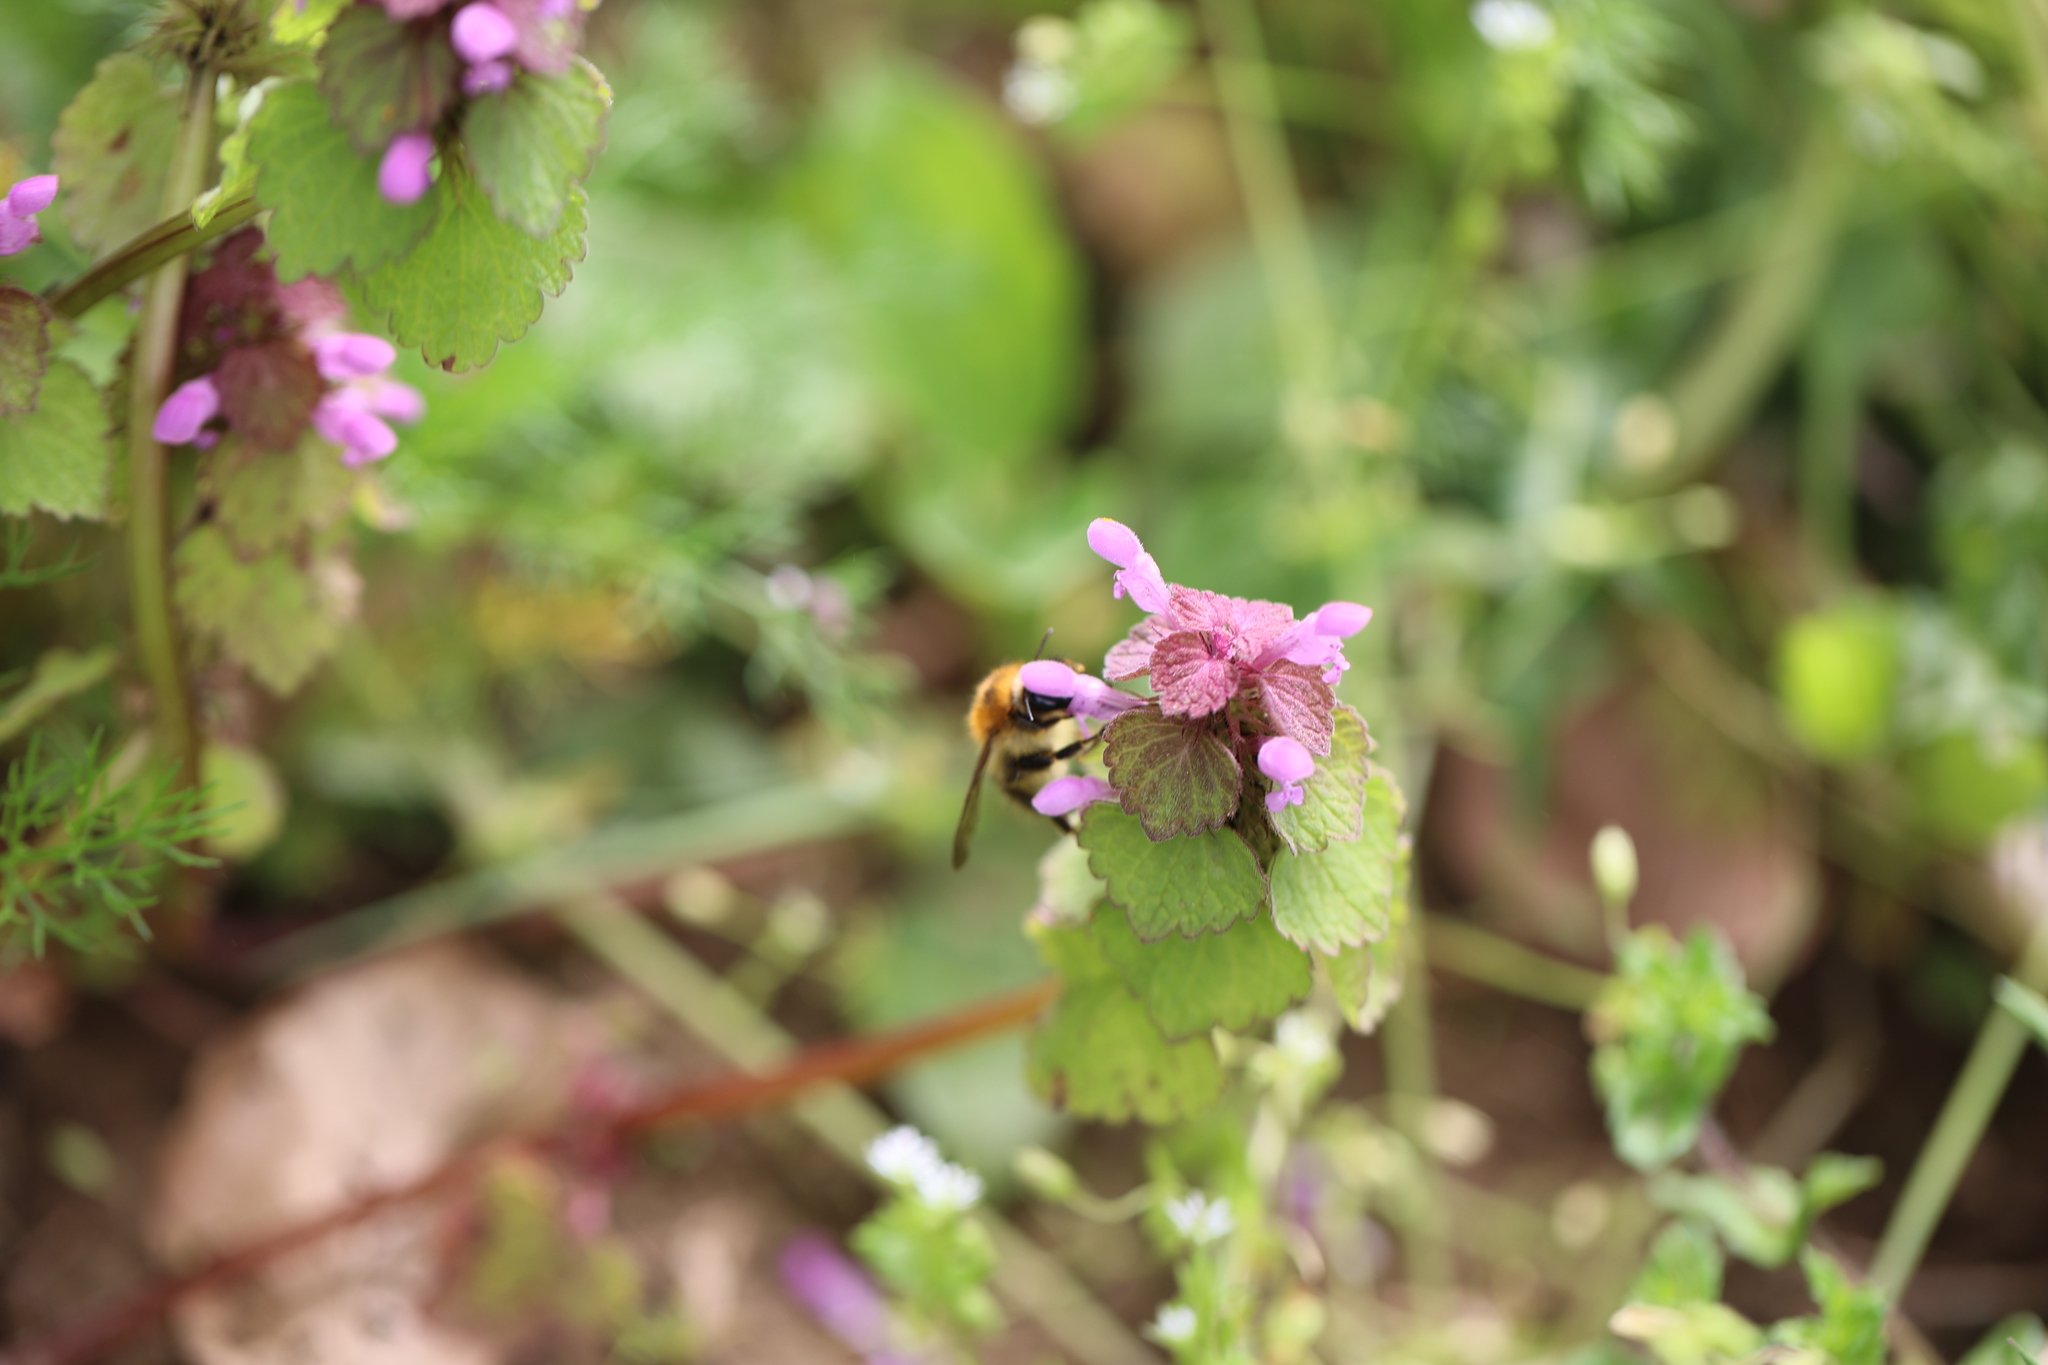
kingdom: Animalia
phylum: Arthropoda
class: Insecta
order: Hymenoptera
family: Apidae
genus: Bombus
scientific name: Bombus pascuorum
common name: Common carder bee
